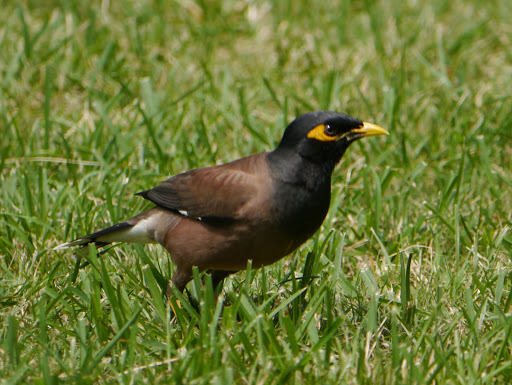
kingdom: Animalia
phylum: Chordata
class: Aves
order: Passeriformes
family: Sturnidae
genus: Acridotheres
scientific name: Acridotheres tristis
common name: Common myna
